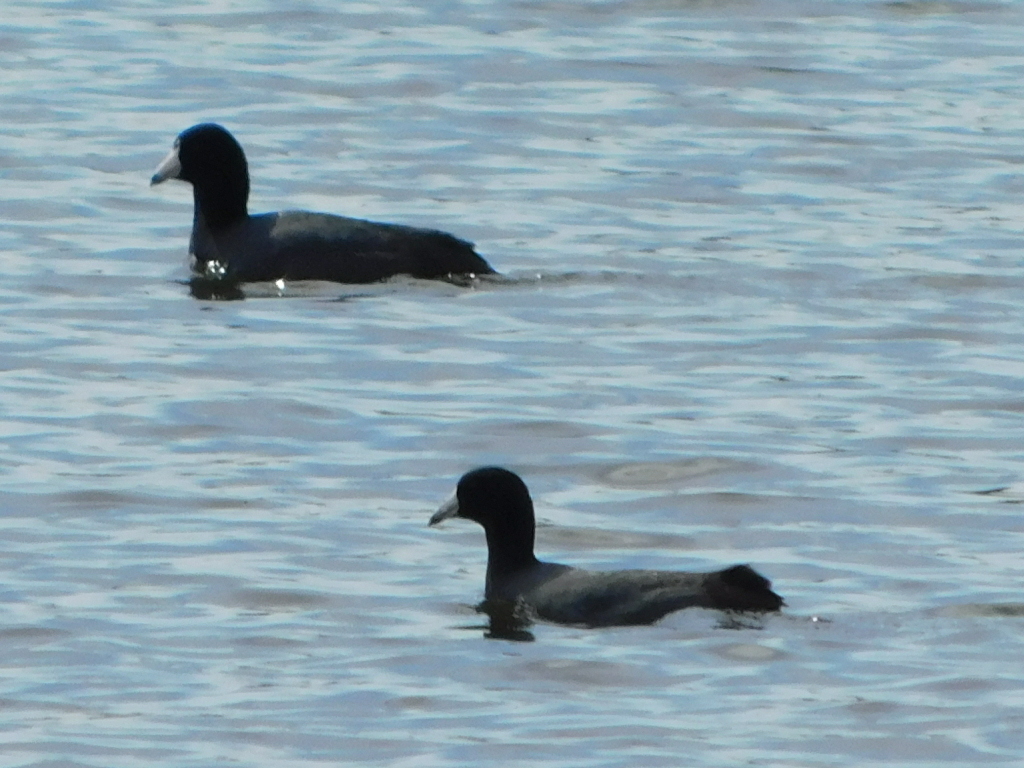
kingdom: Animalia
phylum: Chordata
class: Aves
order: Gruiformes
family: Rallidae
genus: Fulica
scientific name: Fulica americana
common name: American coot
